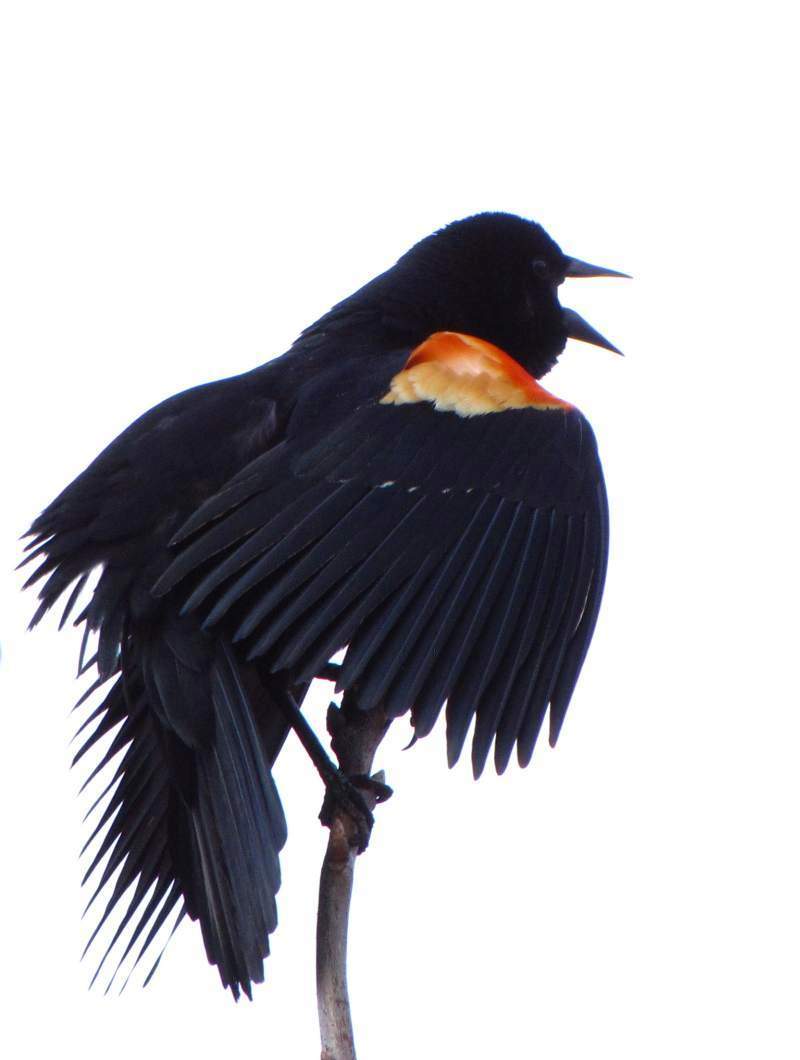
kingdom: Animalia
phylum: Chordata
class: Aves
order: Passeriformes
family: Icteridae
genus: Agelaius
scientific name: Agelaius phoeniceus
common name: Red-winged blackbird
